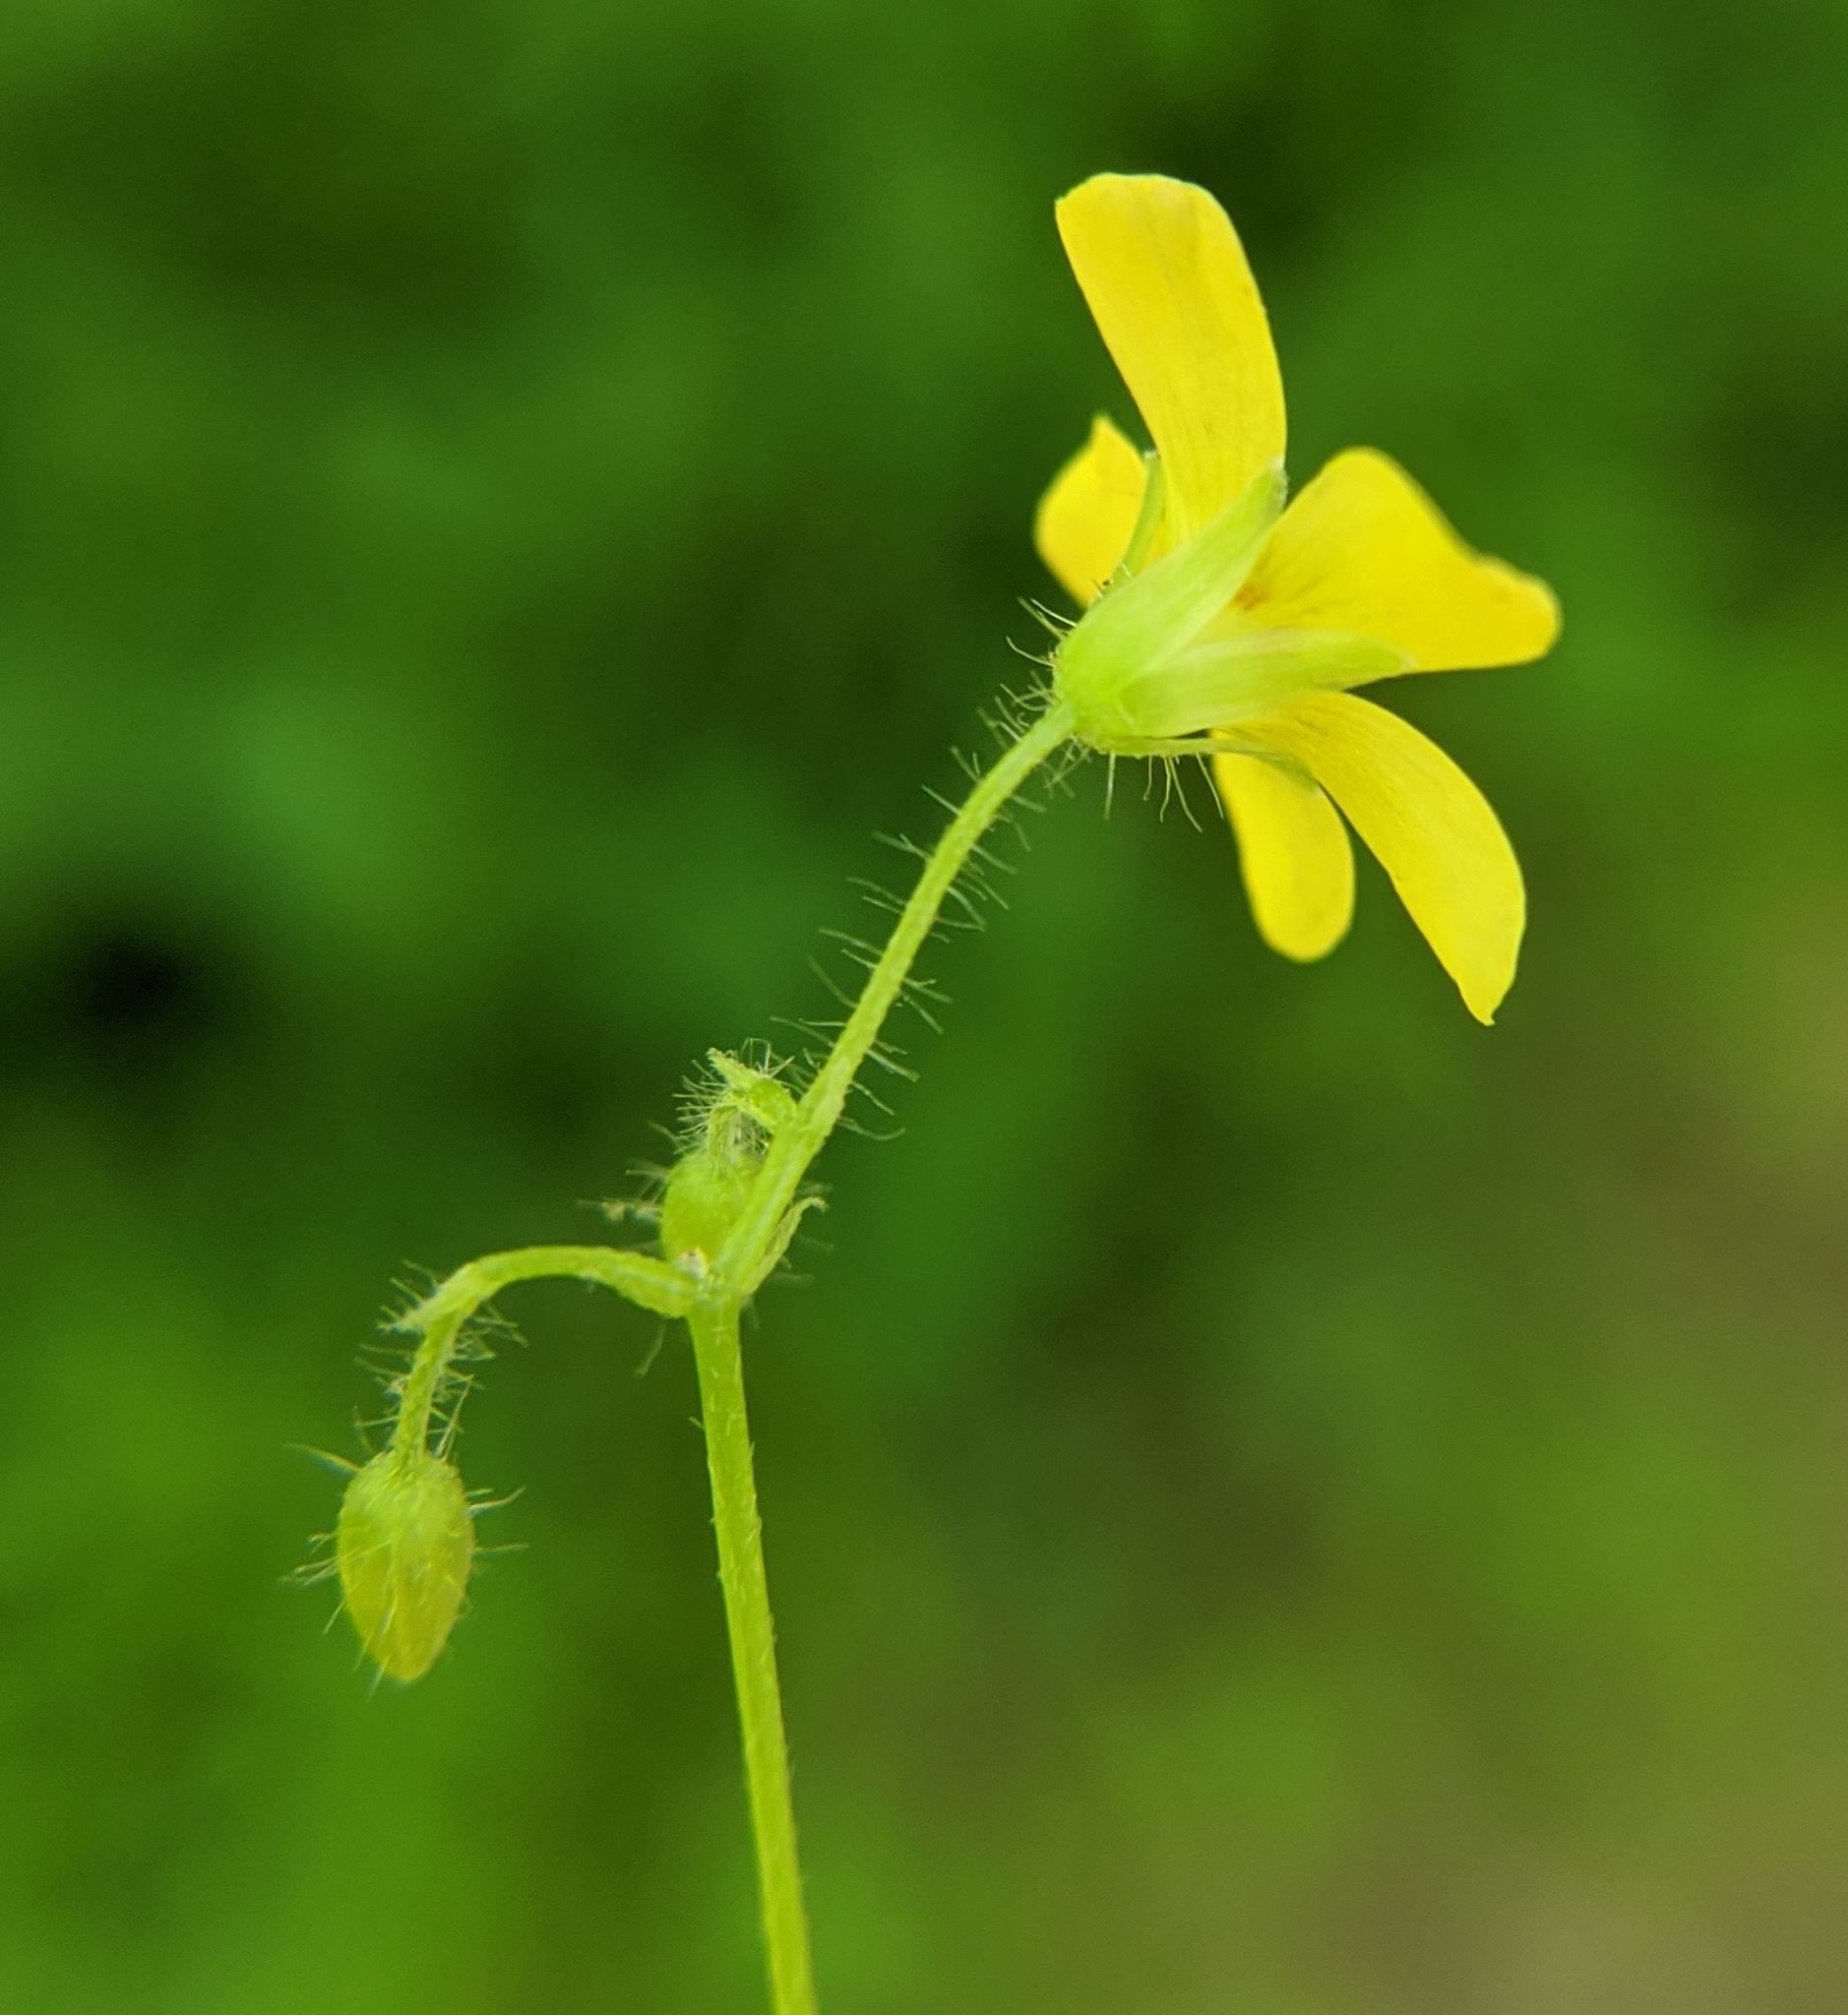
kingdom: Plantae
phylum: Tracheophyta
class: Magnoliopsida
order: Oxalidales
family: Oxalidaceae
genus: Oxalis
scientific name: Oxalis stricta
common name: Upright yellow-sorrel
